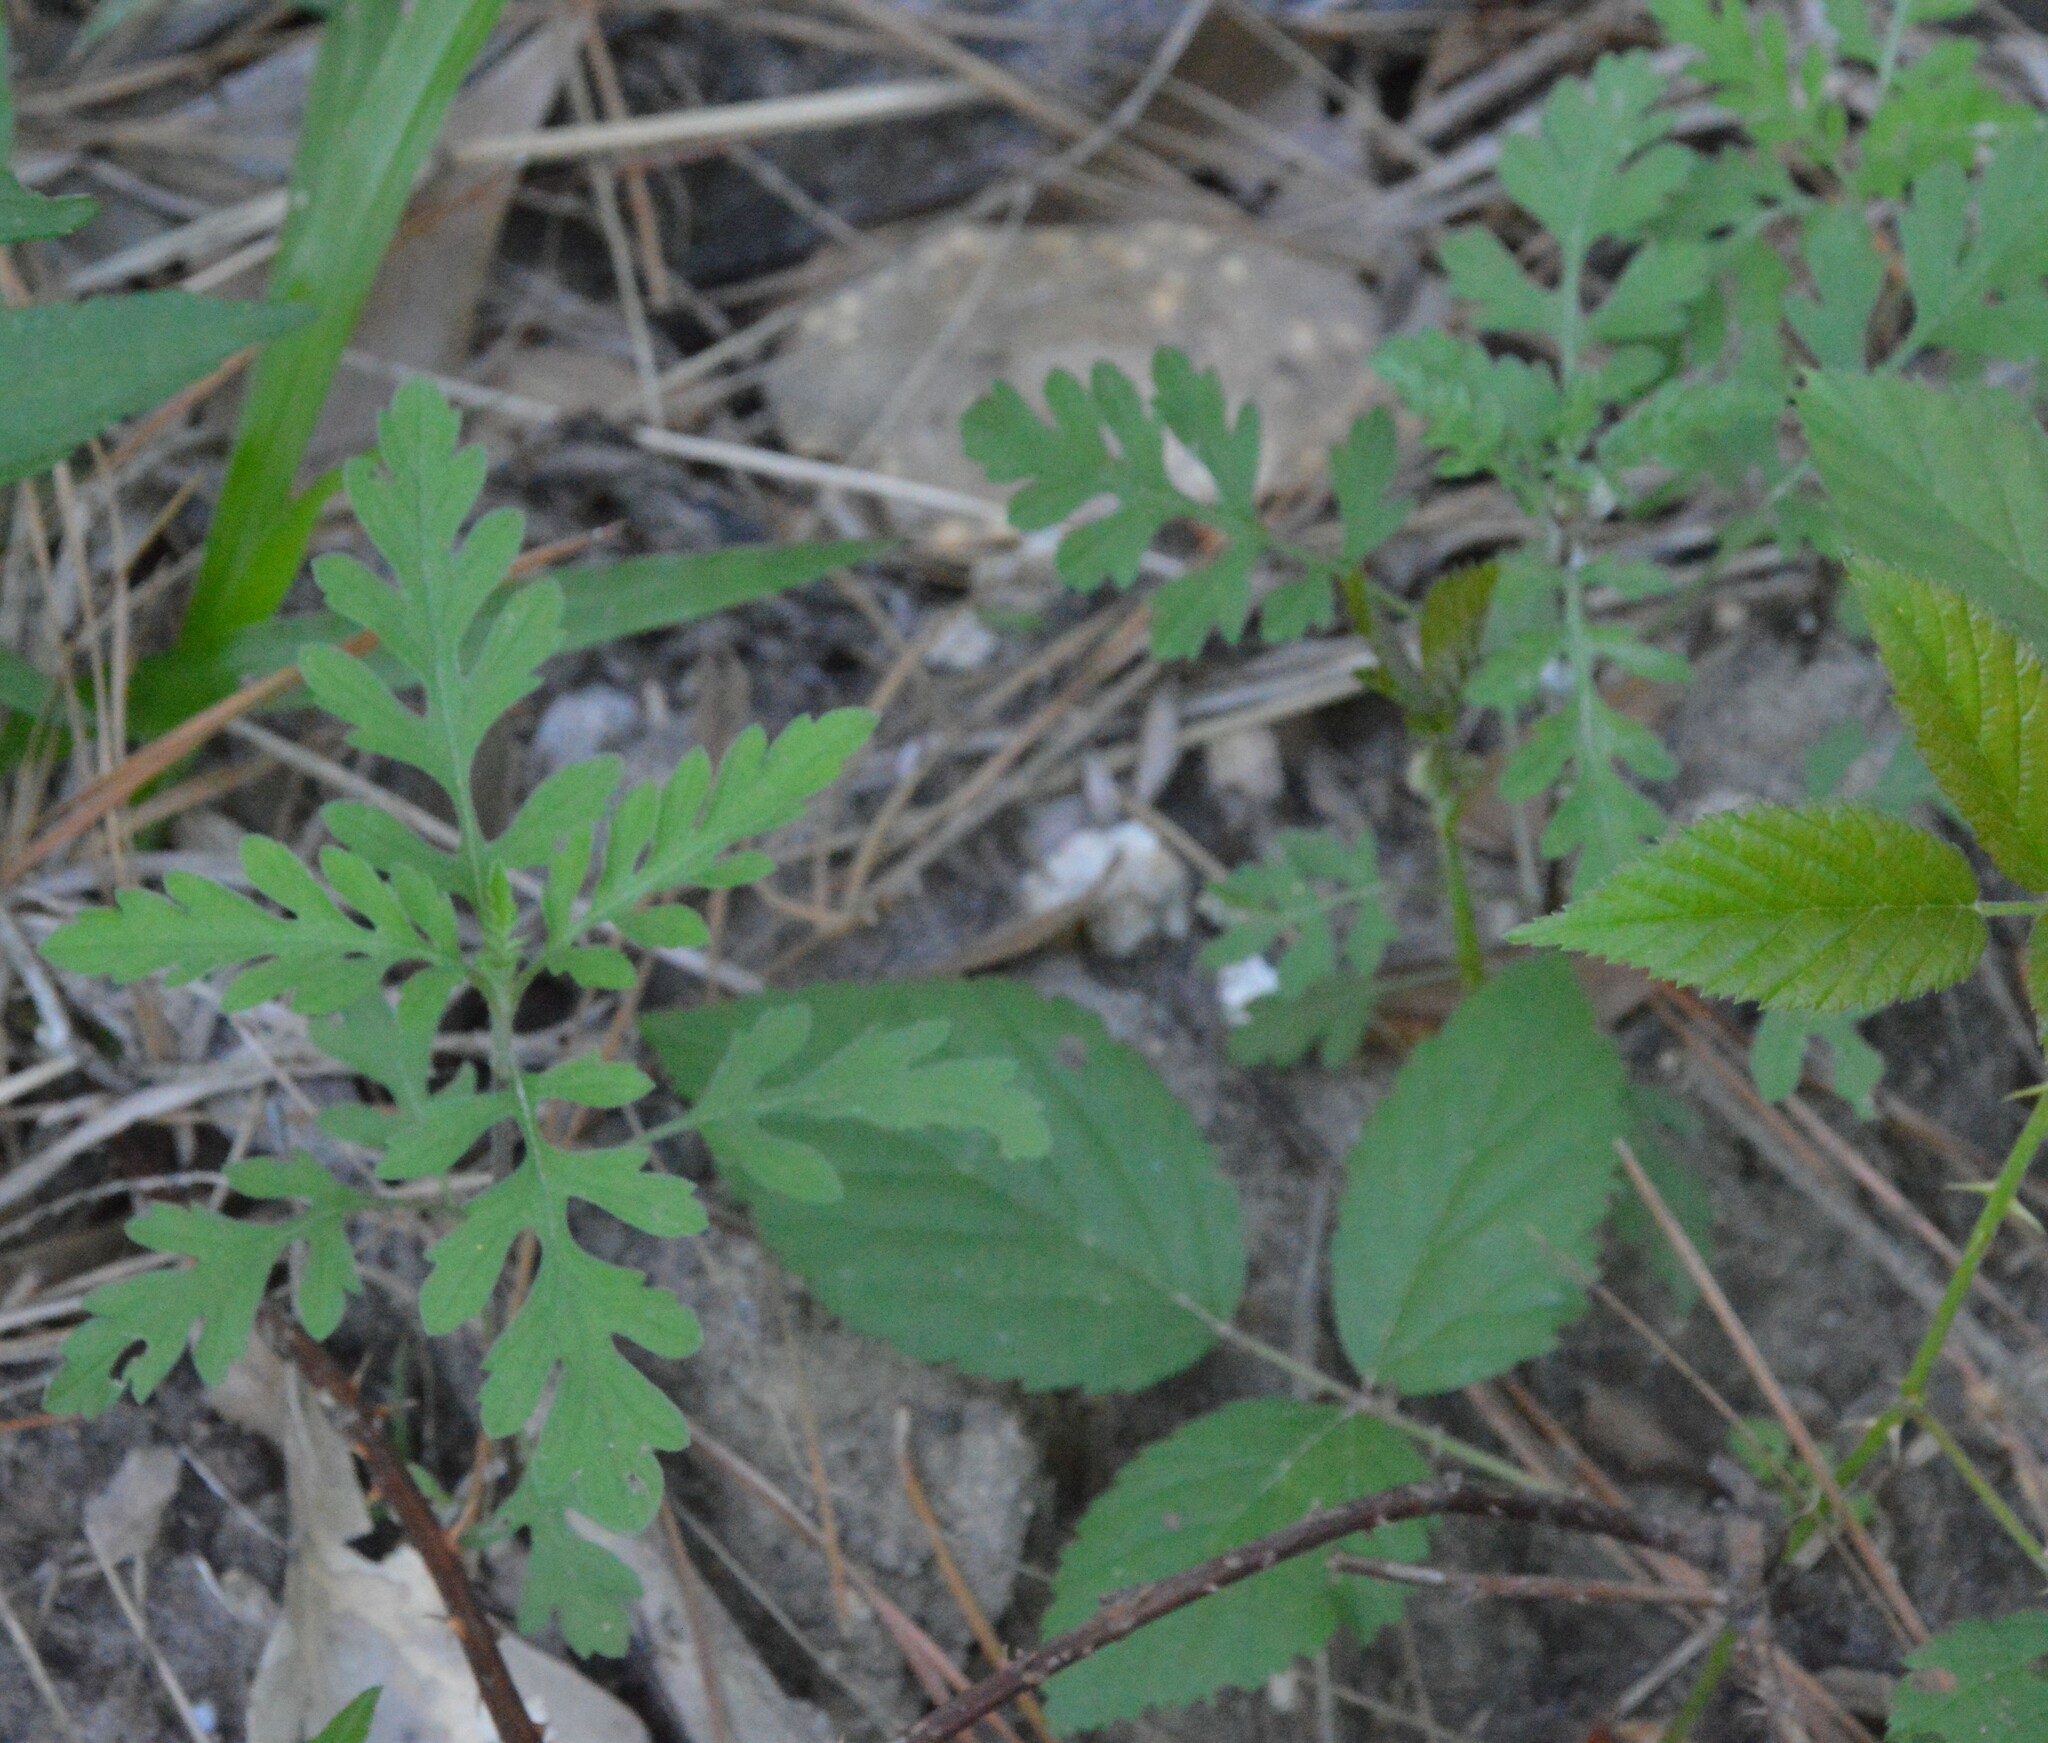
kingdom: Plantae
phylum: Tracheophyta
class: Magnoliopsida
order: Asterales
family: Asteraceae
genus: Ambrosia
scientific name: Ambrosia artemisiifolia
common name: Annual ragweed
